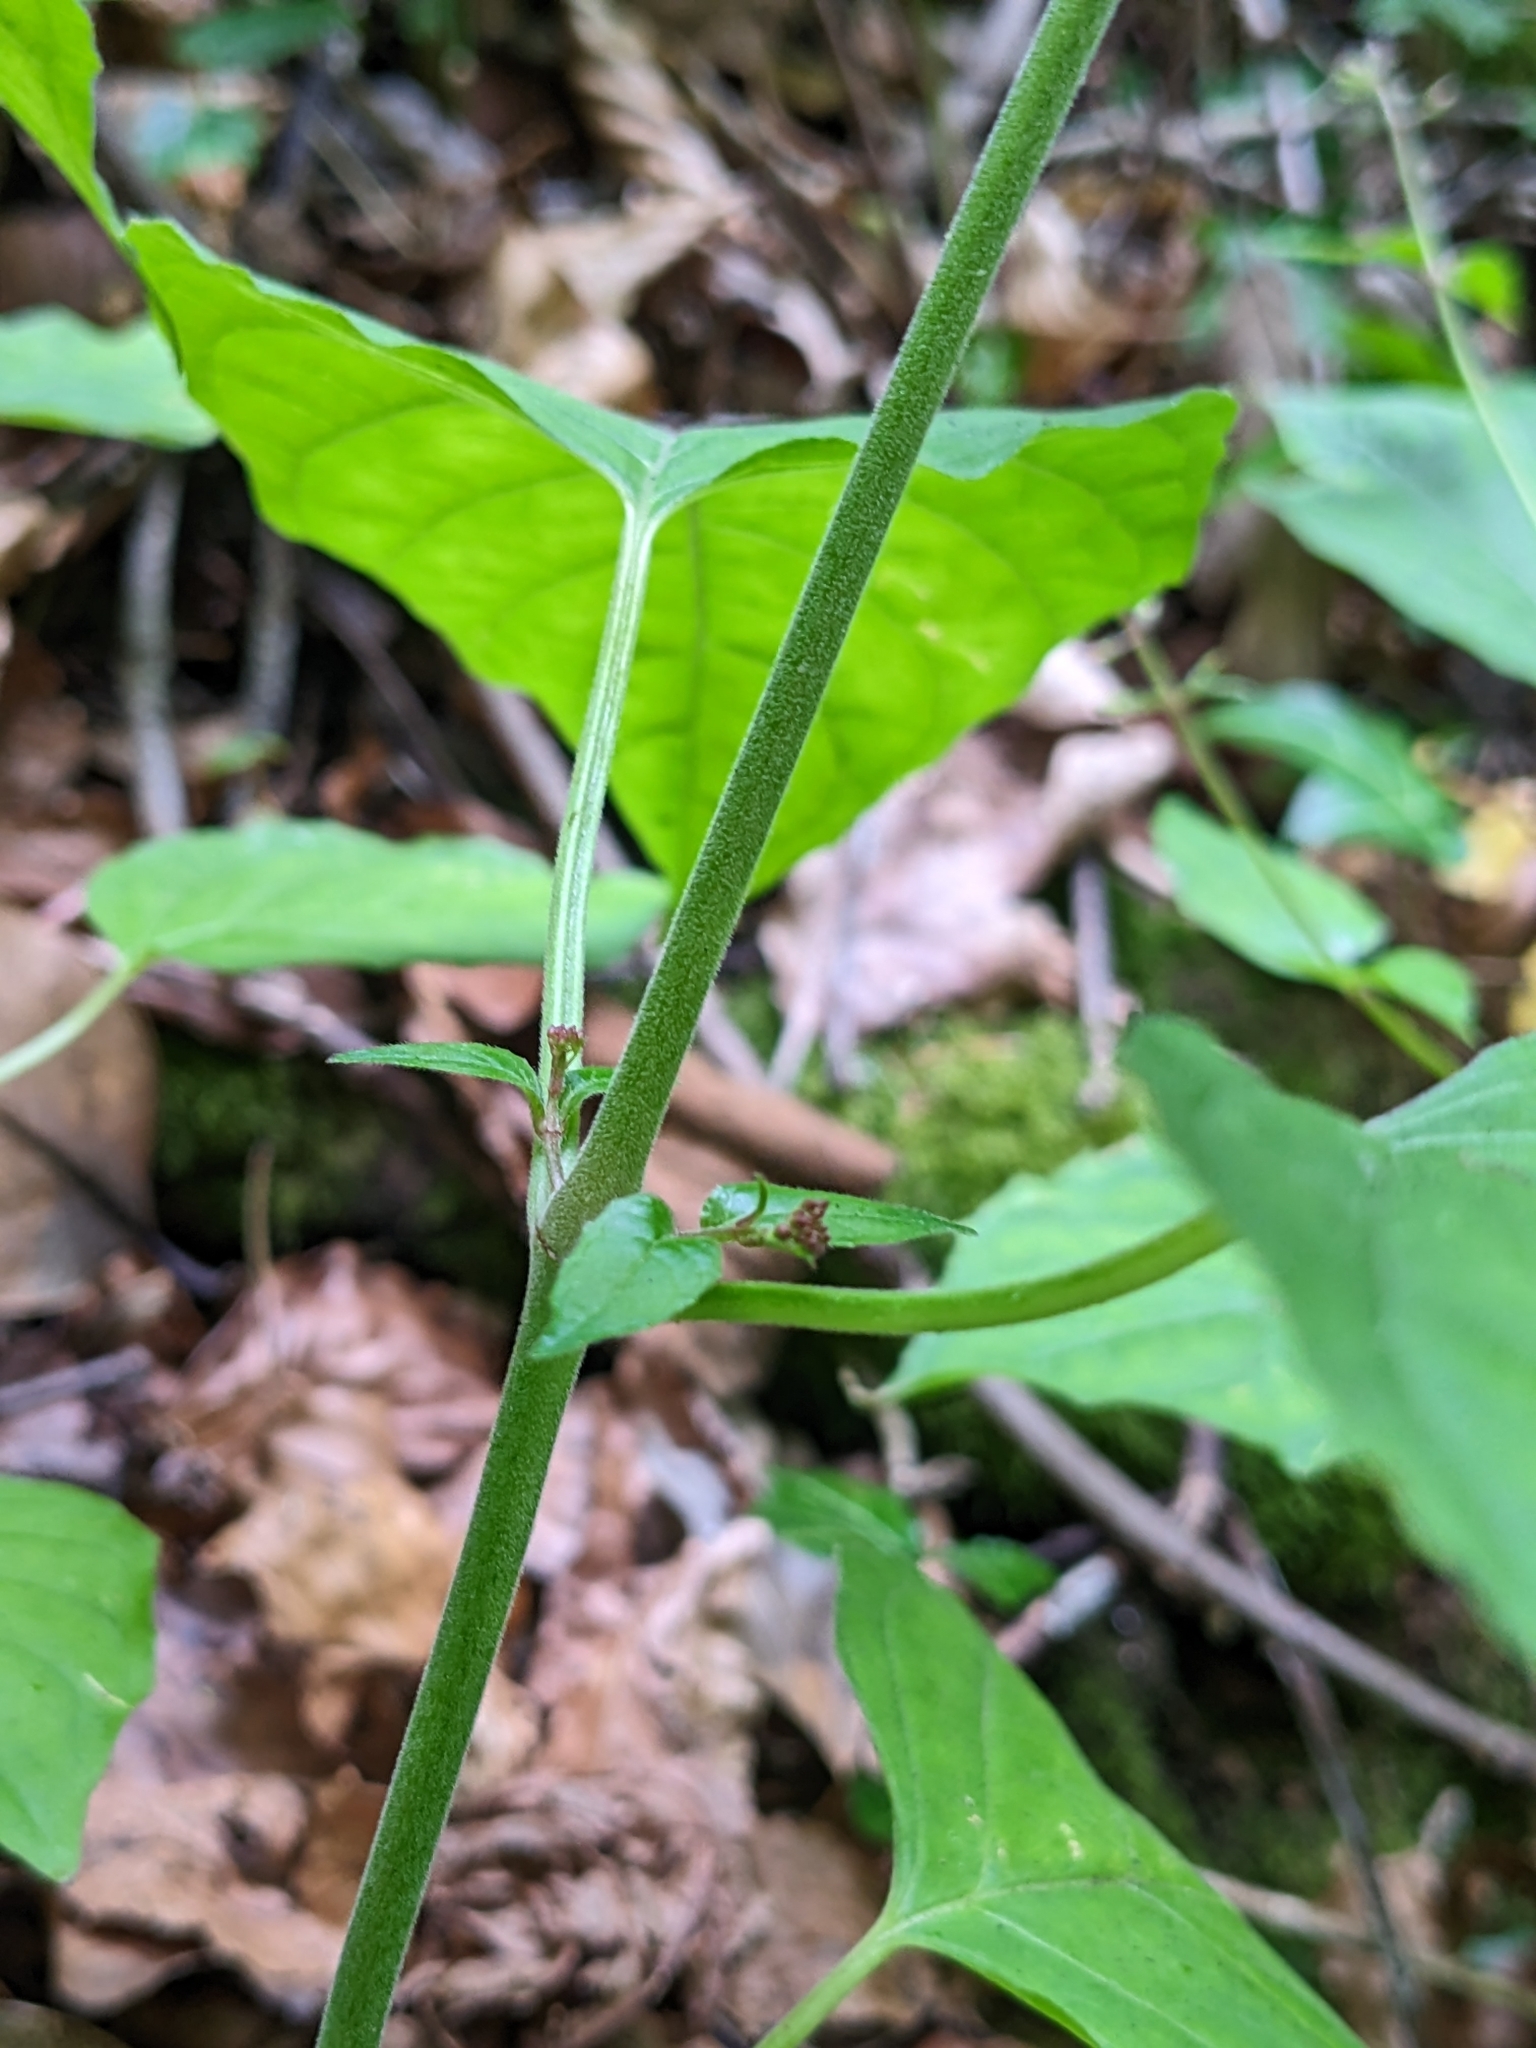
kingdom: Plantae
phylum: Tracheophyta
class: Magnoliopsida
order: Myrtales
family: Onagraceae
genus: Circaea
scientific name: Circaea lutetiana
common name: Enchanter's-nightshade
